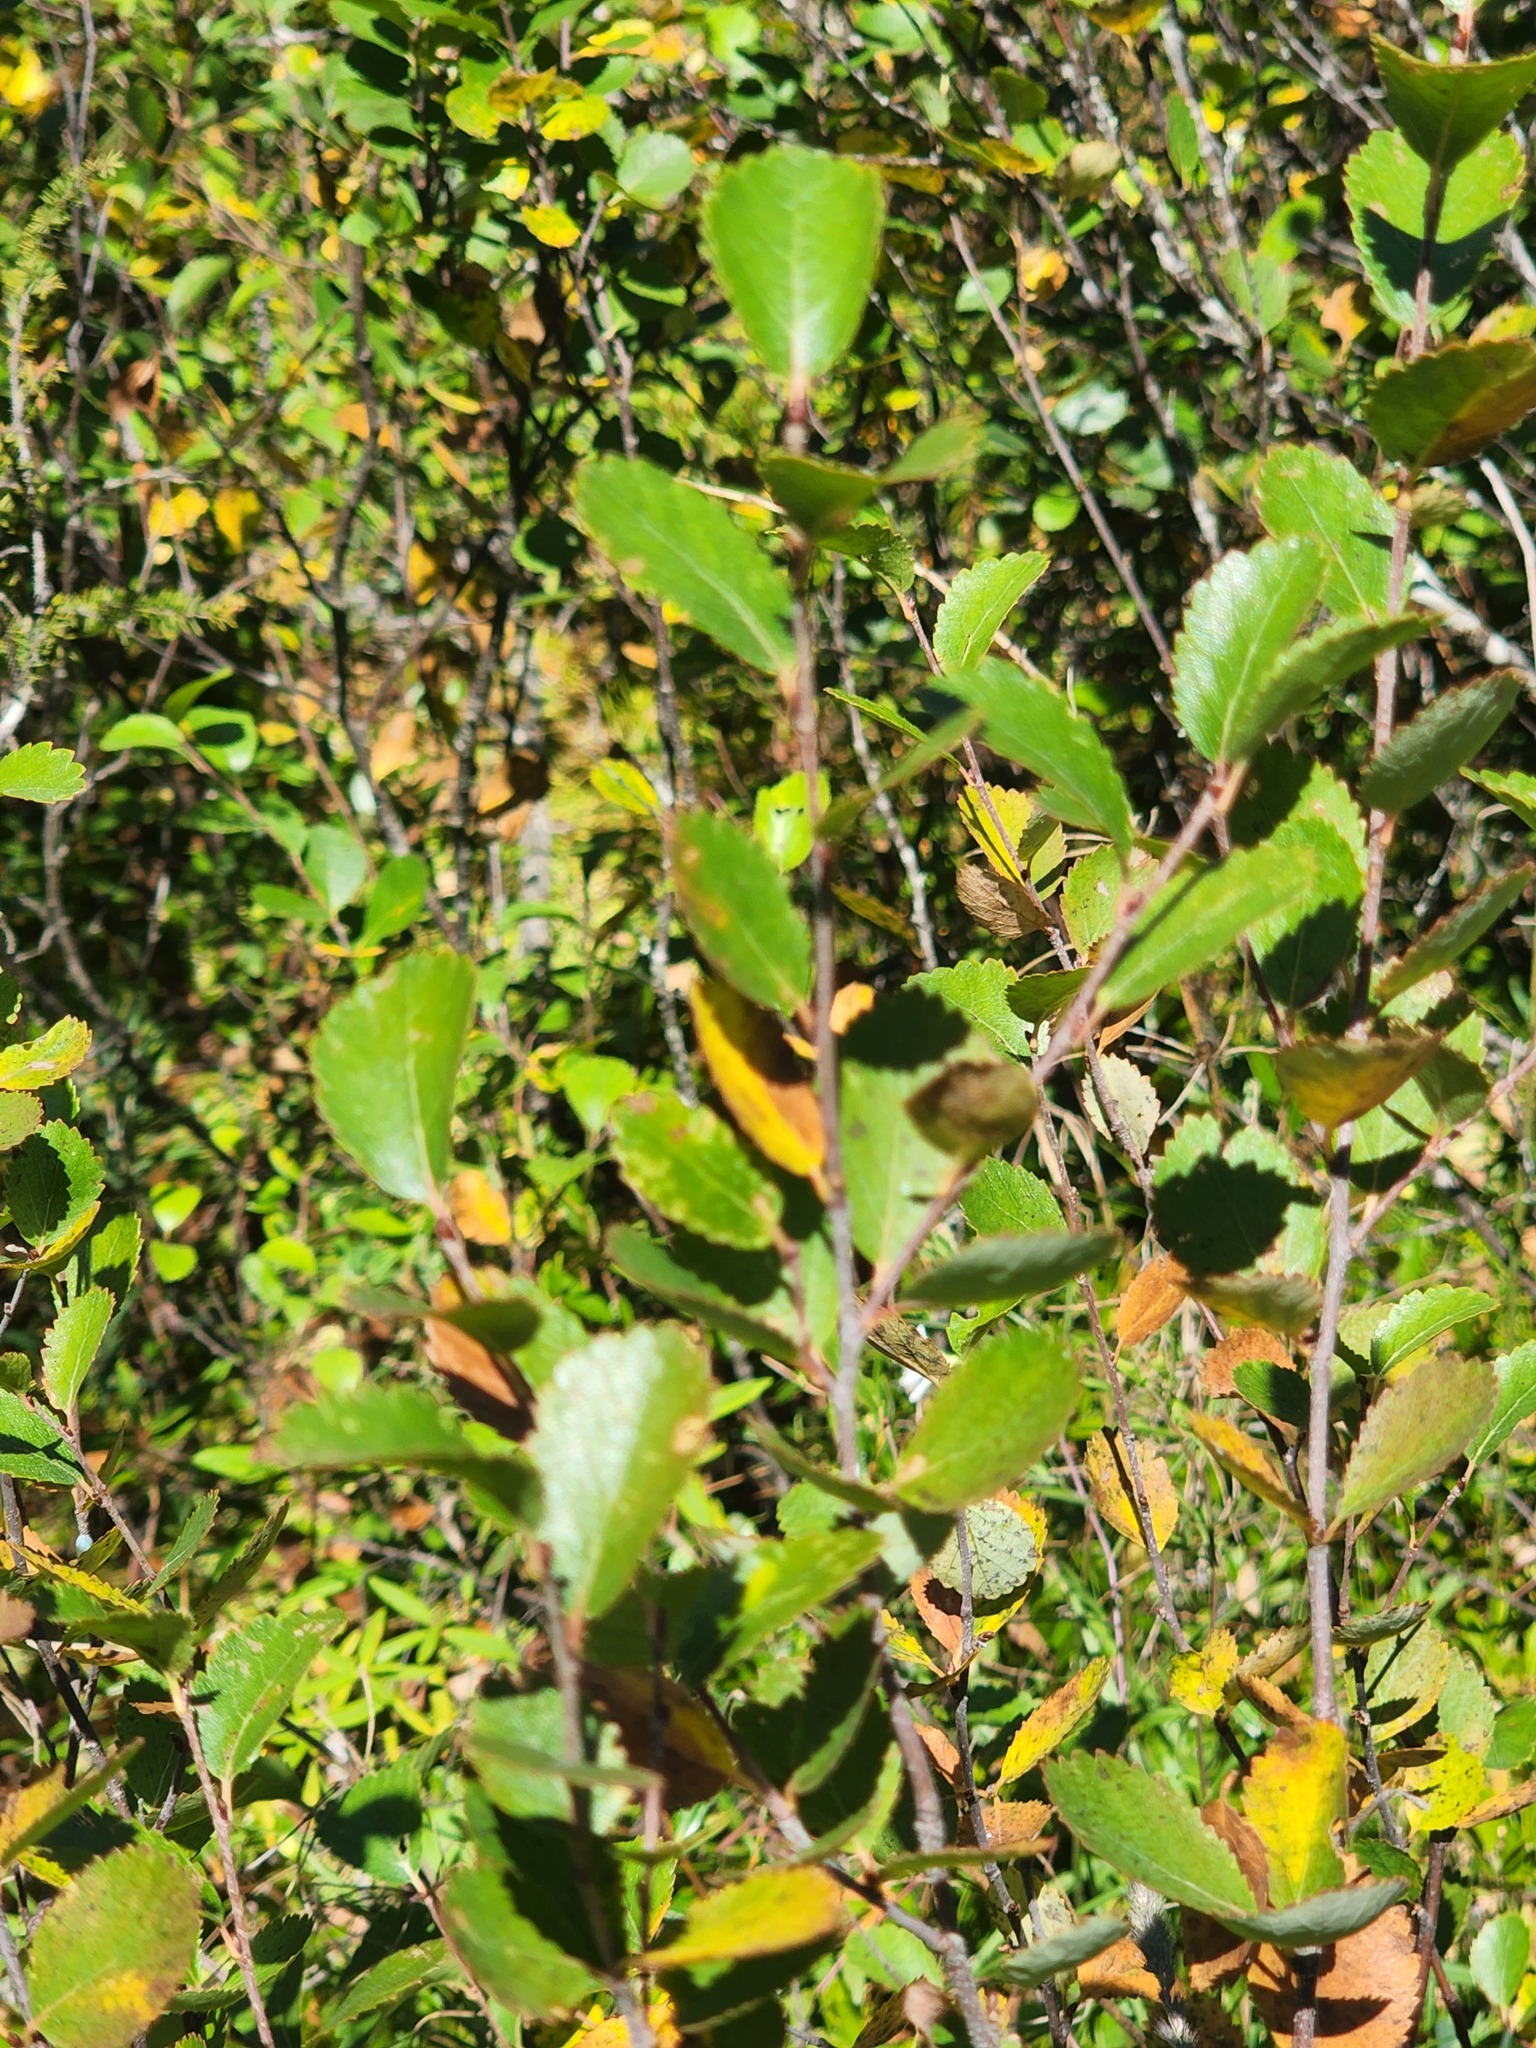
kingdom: Plantae
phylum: Tracheophyta
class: Magnoliopsida
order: Fagales
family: Betulaceae
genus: Betula
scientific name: Betula pumila
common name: Bog birch
